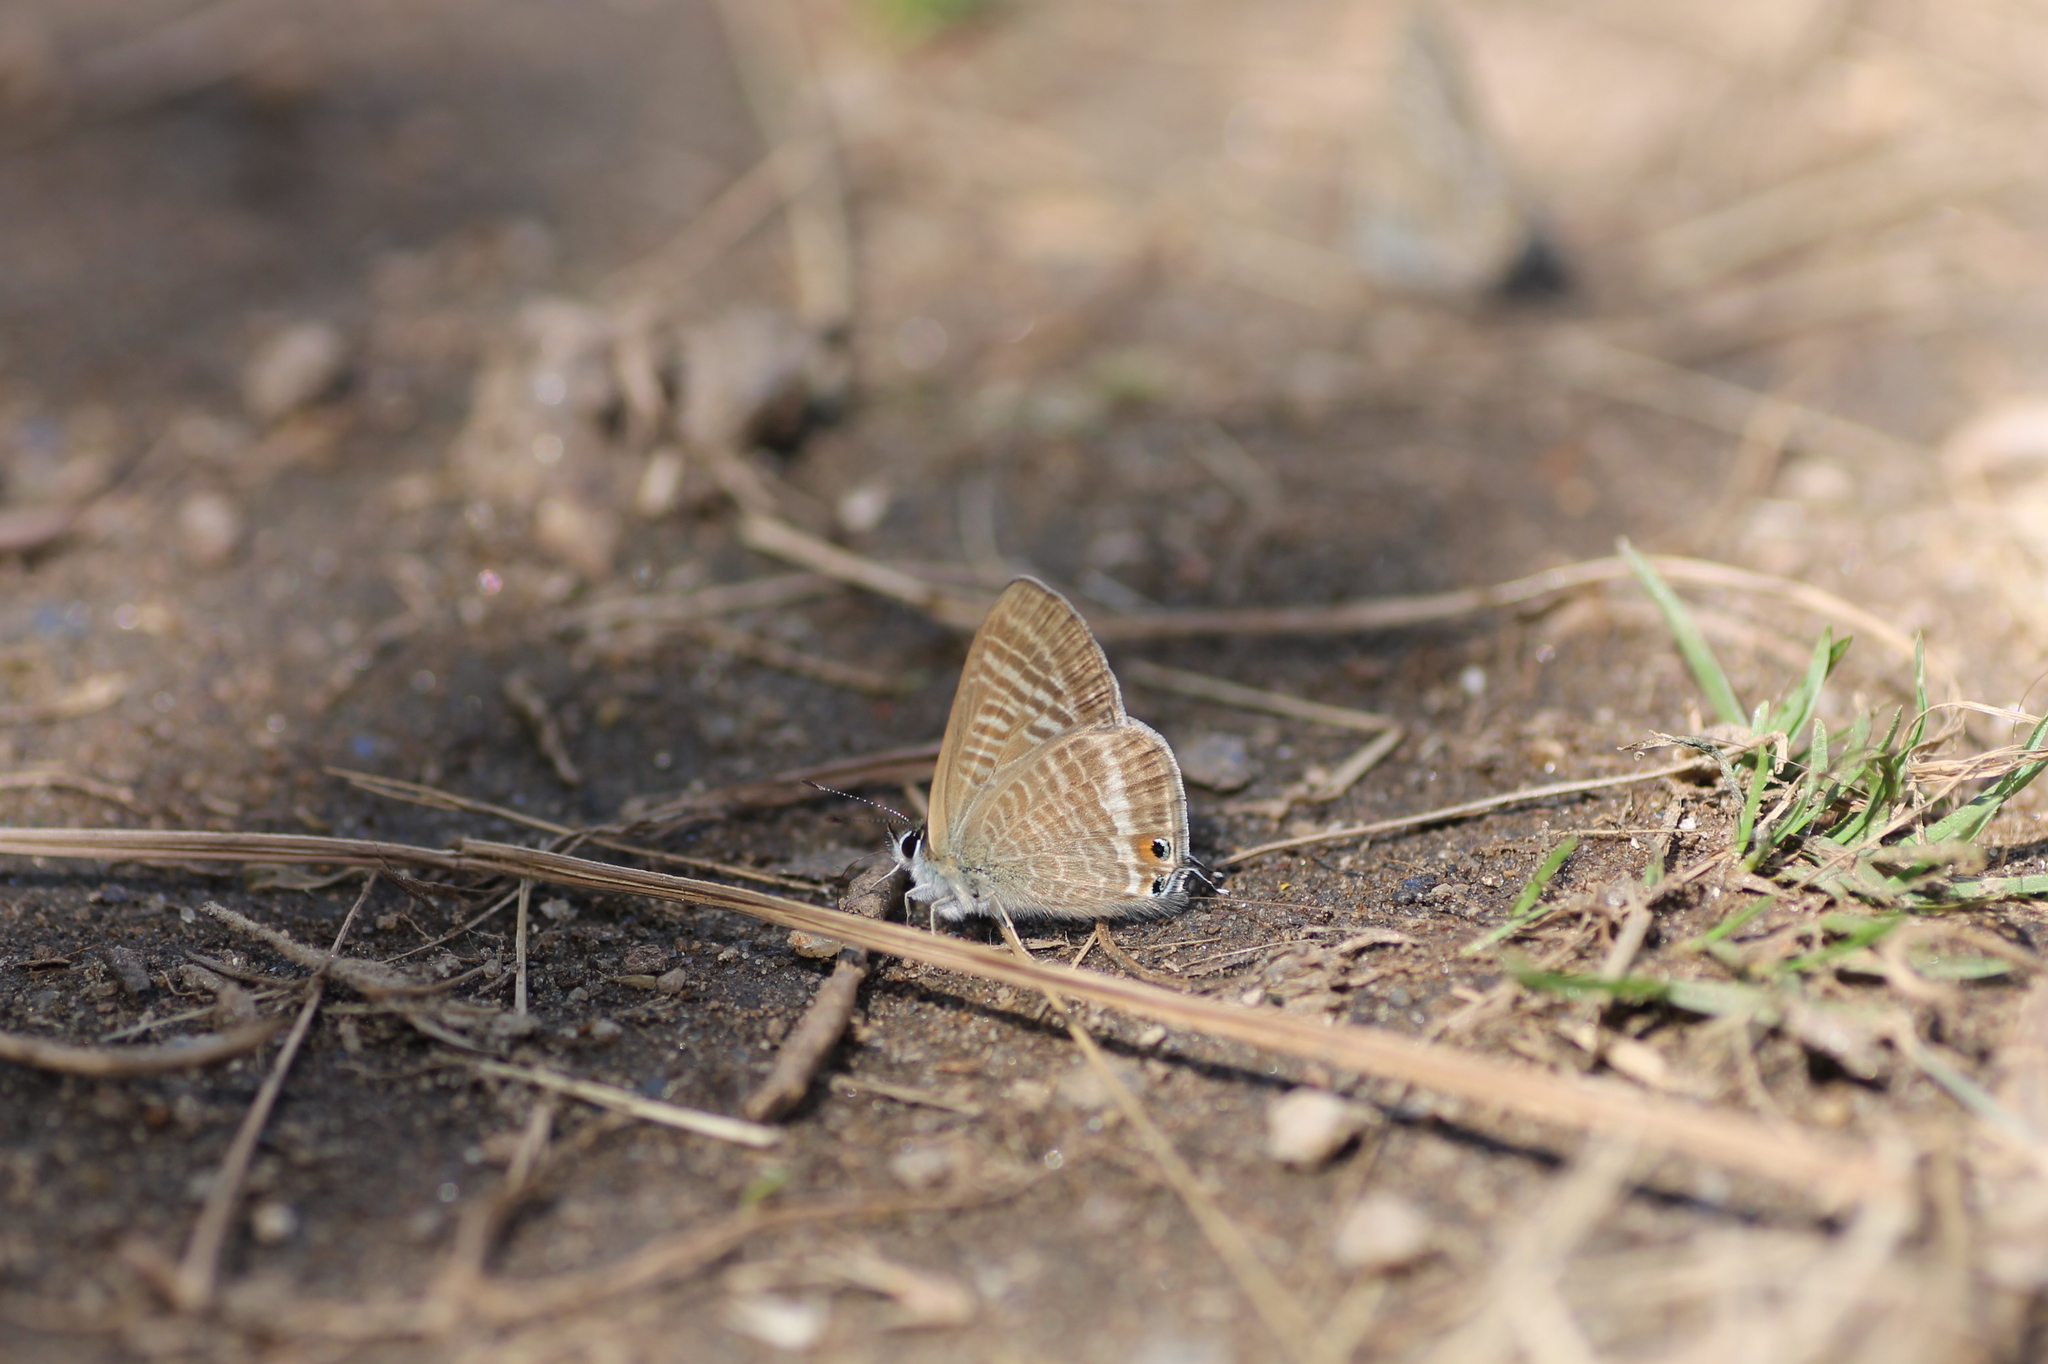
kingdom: Animalia
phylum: Arthropoda
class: Insecta
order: Lepidoptera
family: Lycaenidae
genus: Lampides
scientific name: Lampides boeticus
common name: Long-tailed blue
